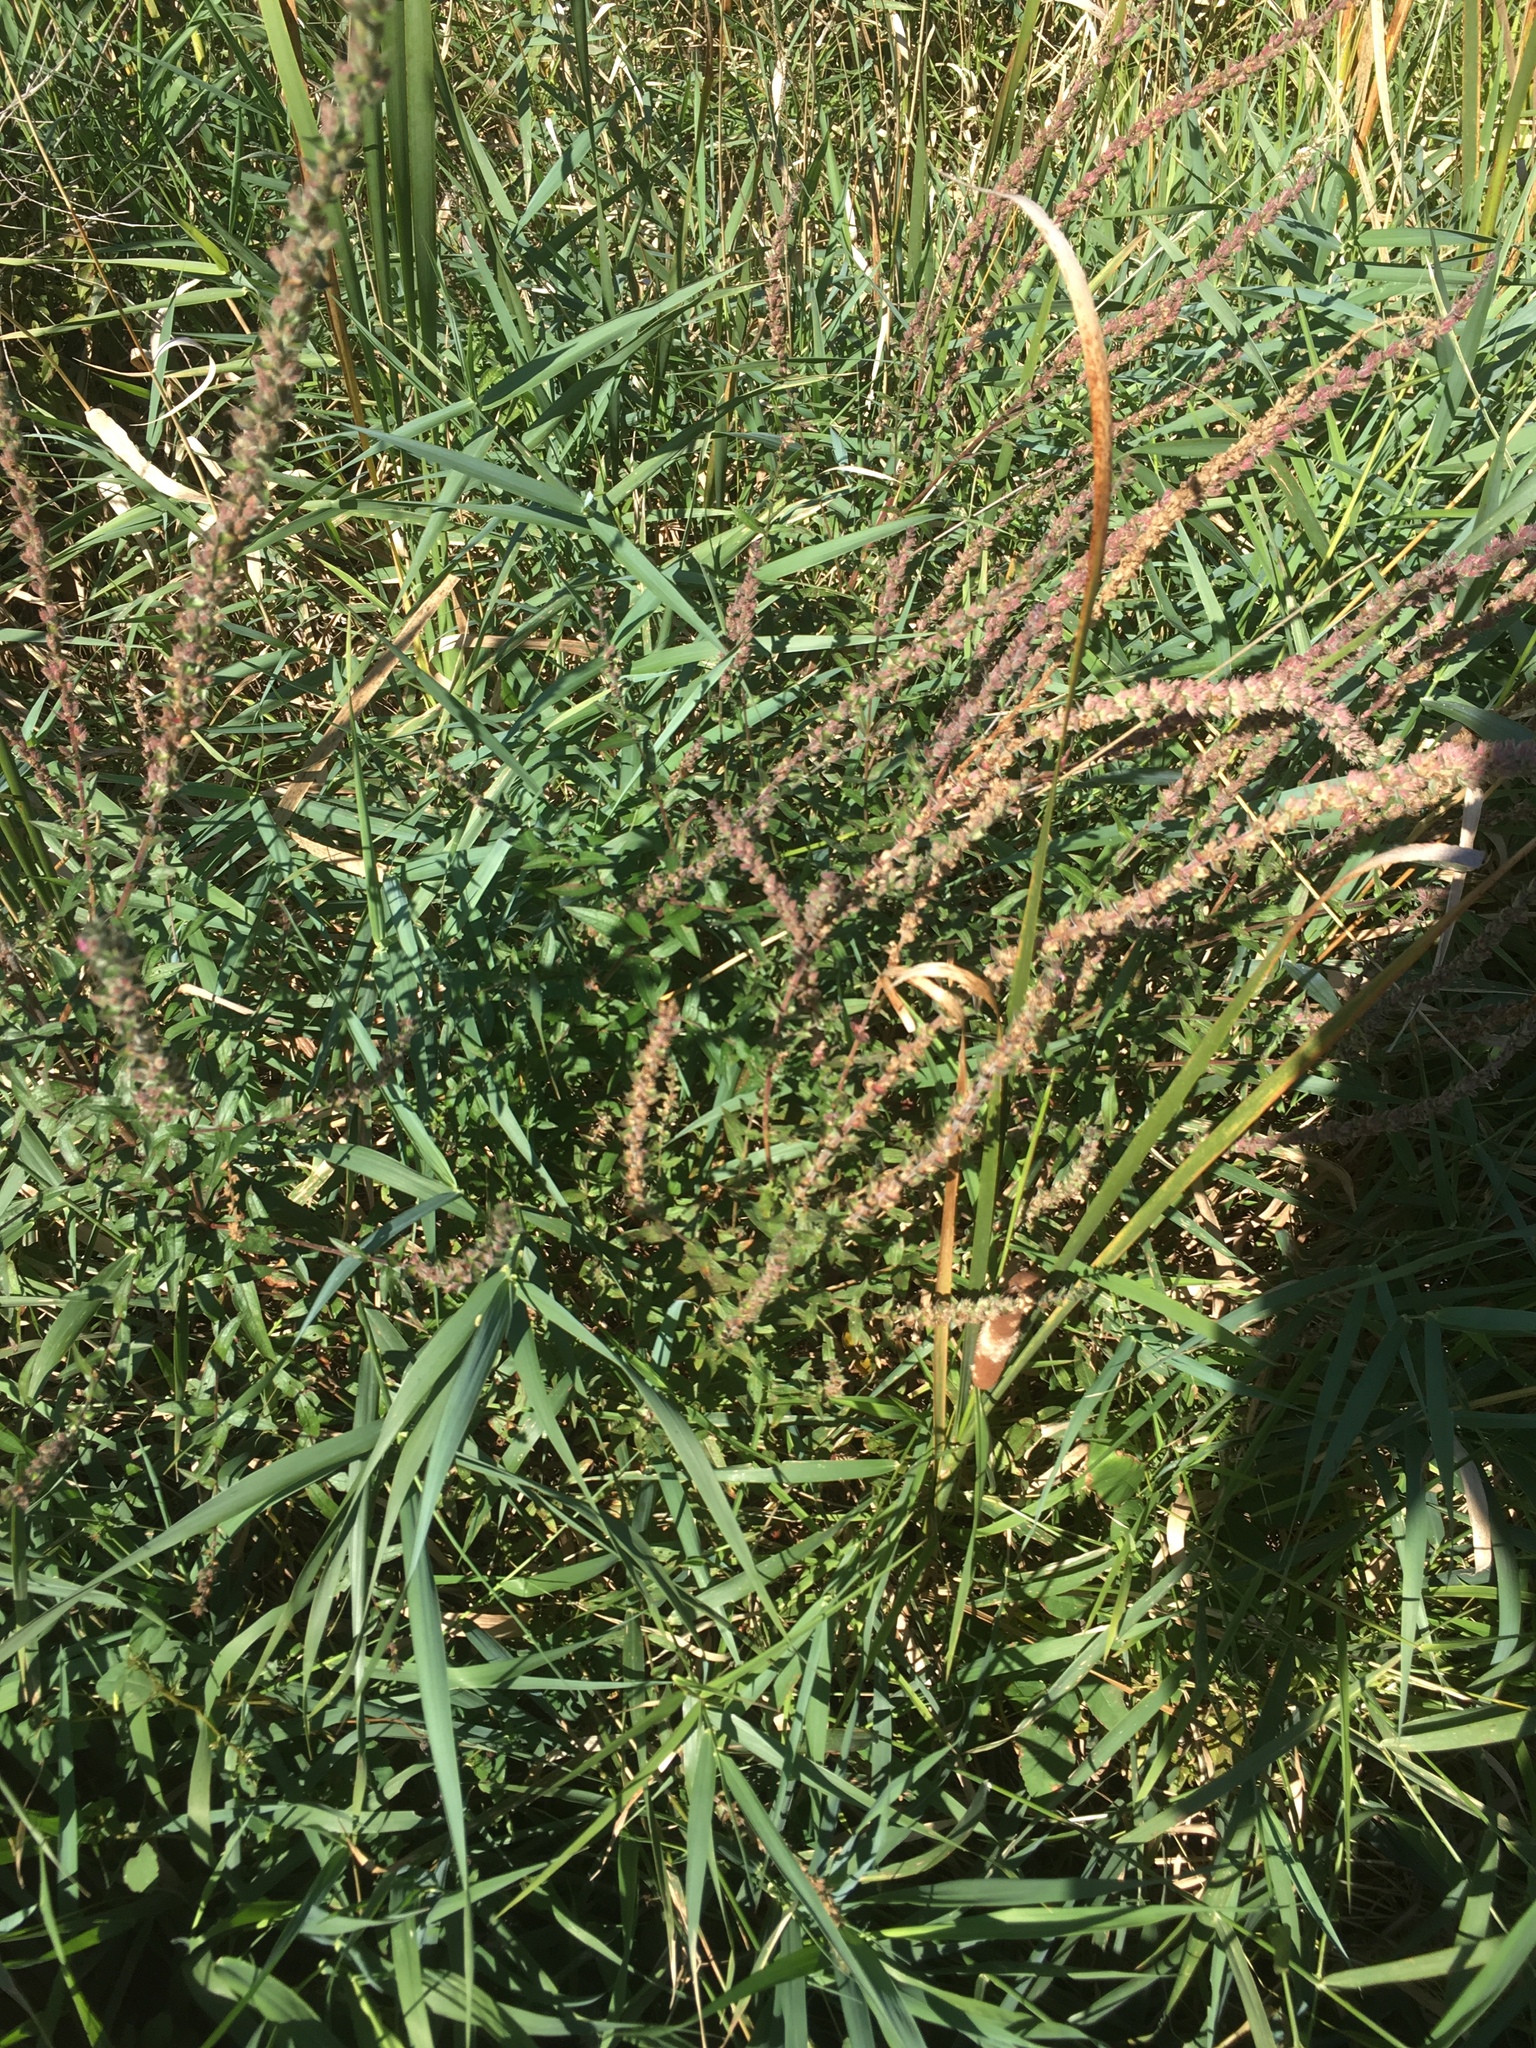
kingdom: Plantae
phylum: Tracheophyta
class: Magnoliopsida
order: Myrtales
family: Lythraceae
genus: Lythrum
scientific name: Lythrum salicaria
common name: Purple loosestrife
